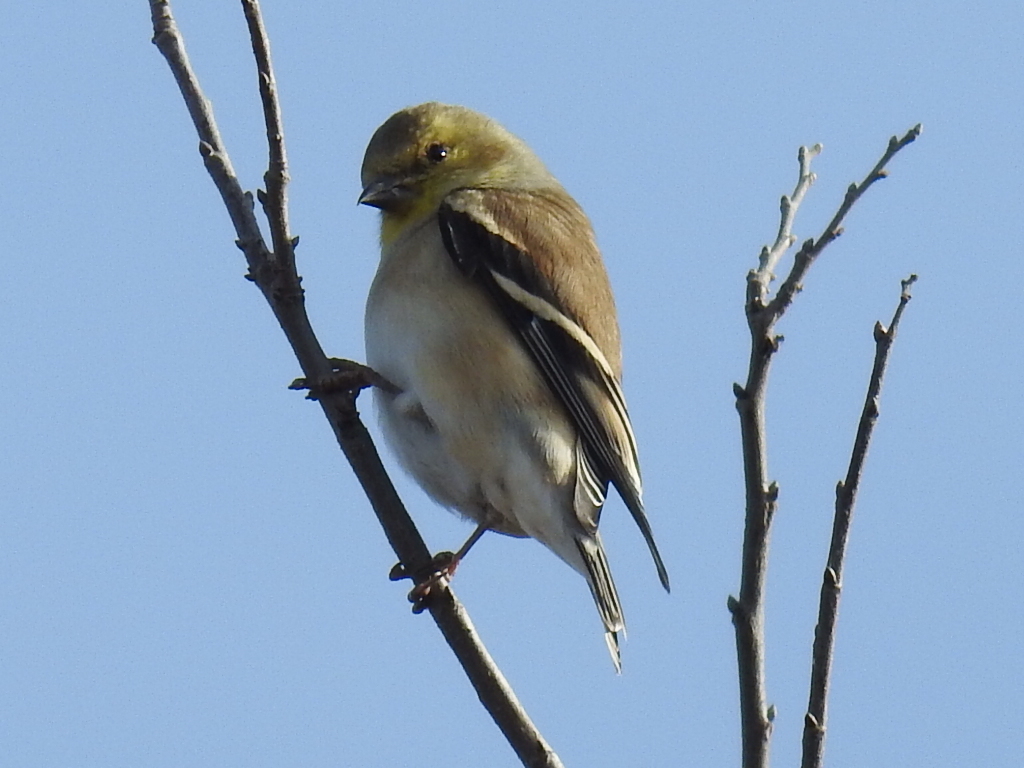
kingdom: Animalia
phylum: Chordata
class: Aves
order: Passeriformes
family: Fringillidae
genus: Spinus
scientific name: Spinus tristis
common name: American goldfinch
